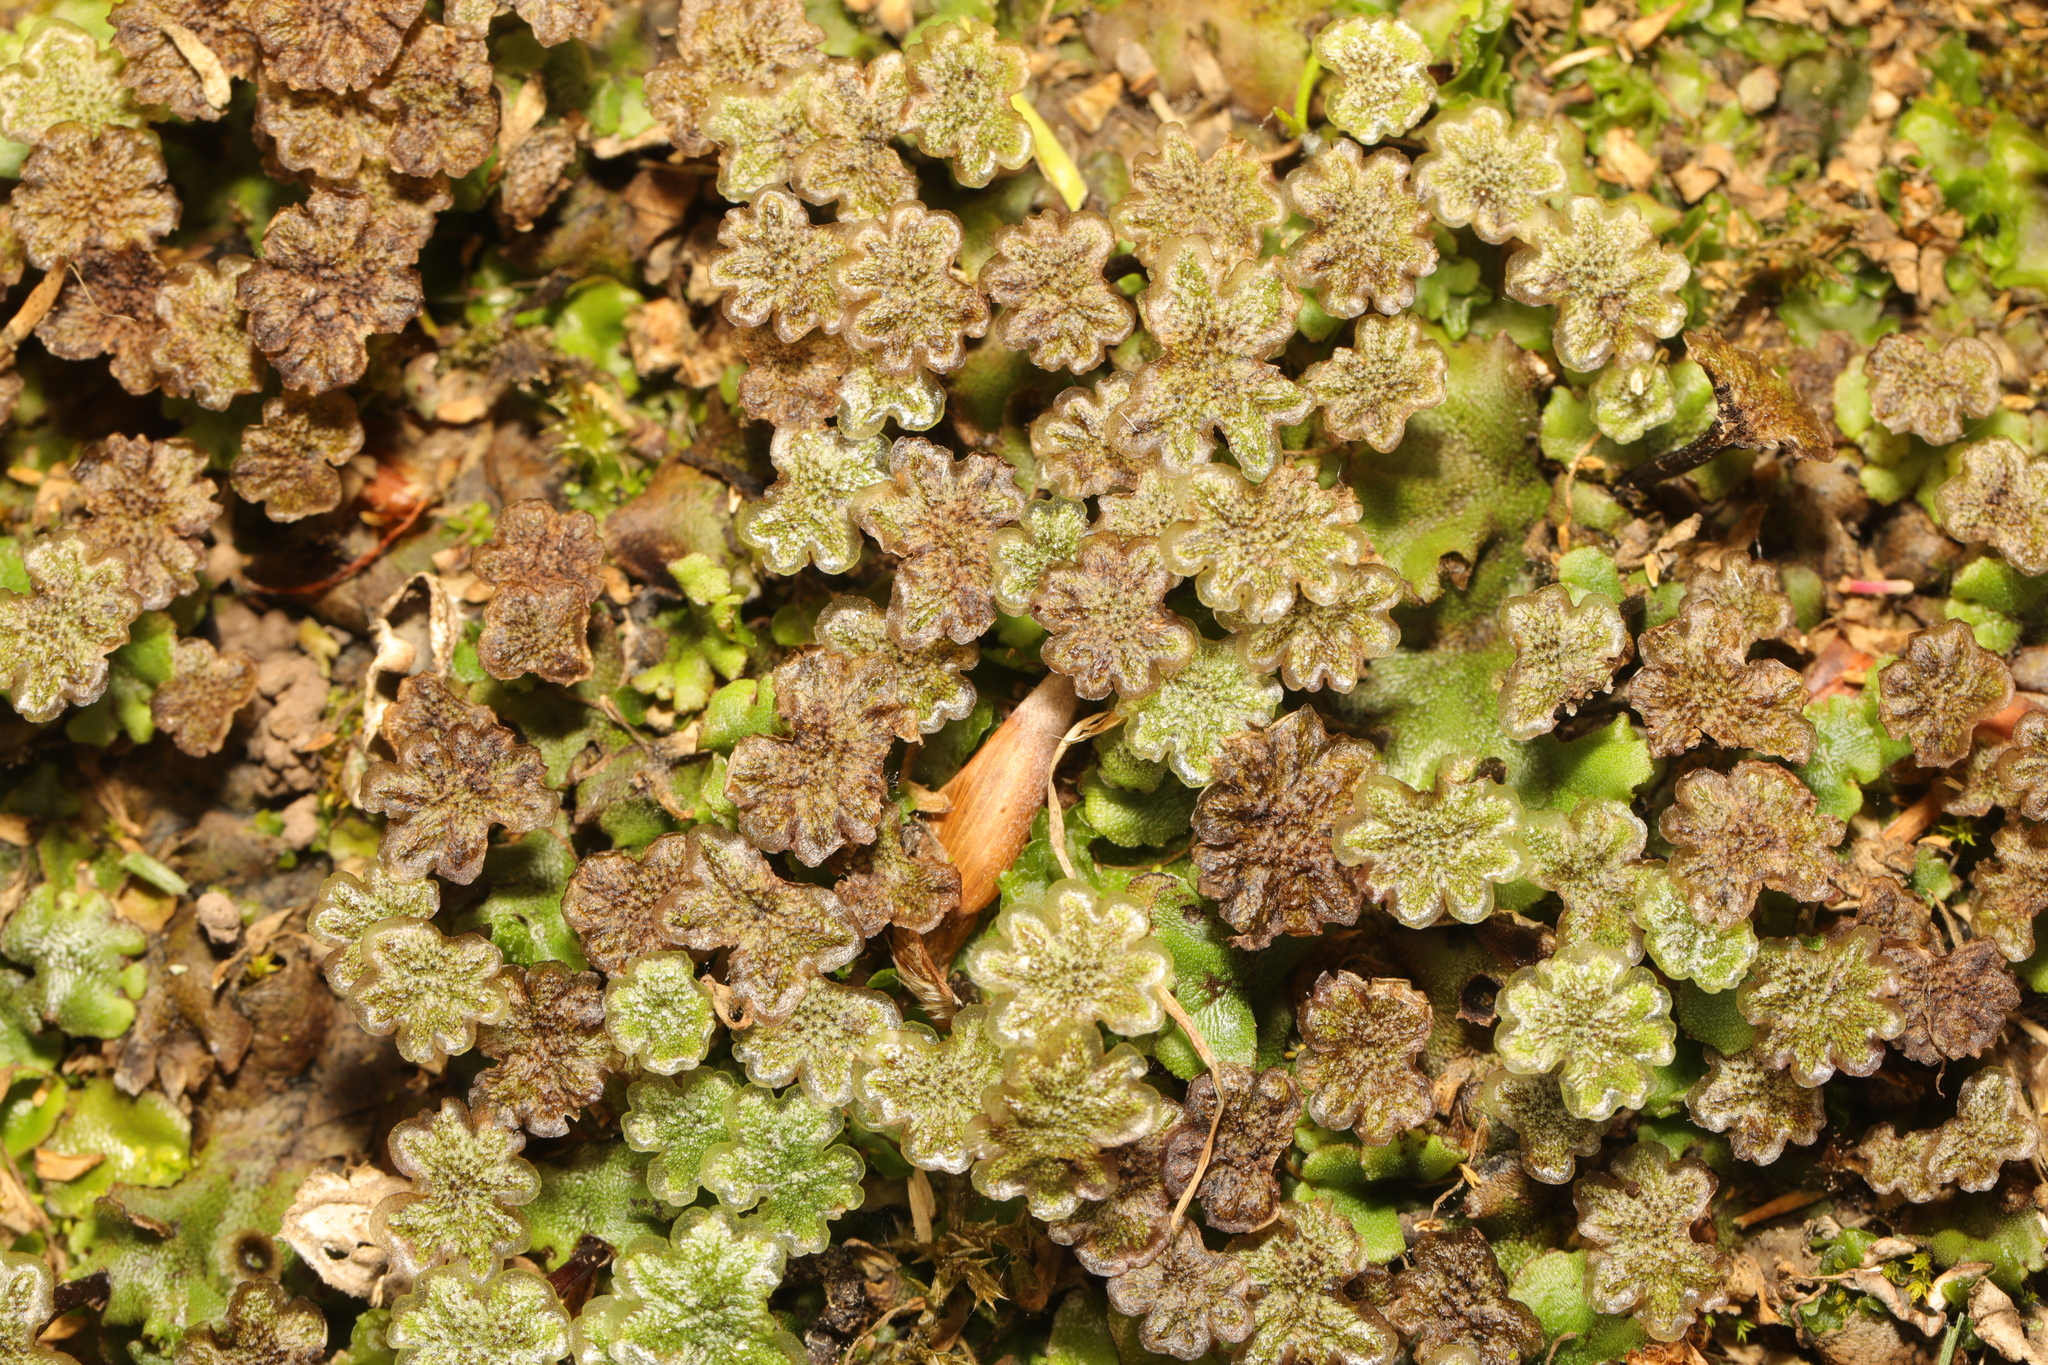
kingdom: Plantae
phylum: Marchantiophyta
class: Marchantiopsida
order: Marchantiales
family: Marchantiaceae
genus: Marchantia
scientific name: Marchantia polymorpha
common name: Common liverwort
